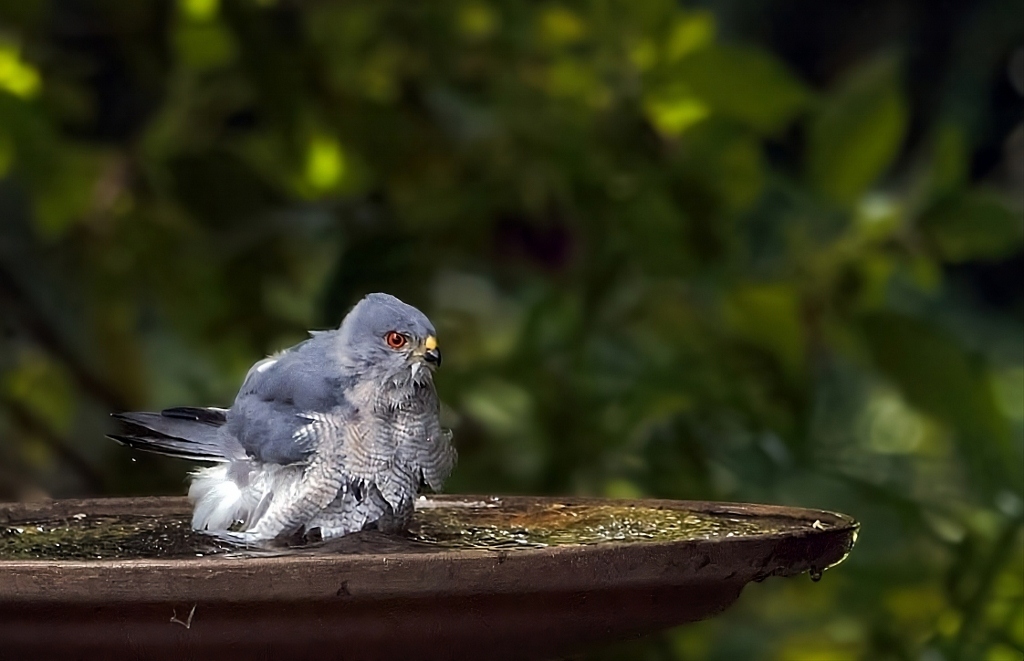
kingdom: Animalia
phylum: Chordata
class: Aves
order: Accipitriformes
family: Accipitridae
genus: Accipiter
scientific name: Accipiter badius
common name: Shikra
